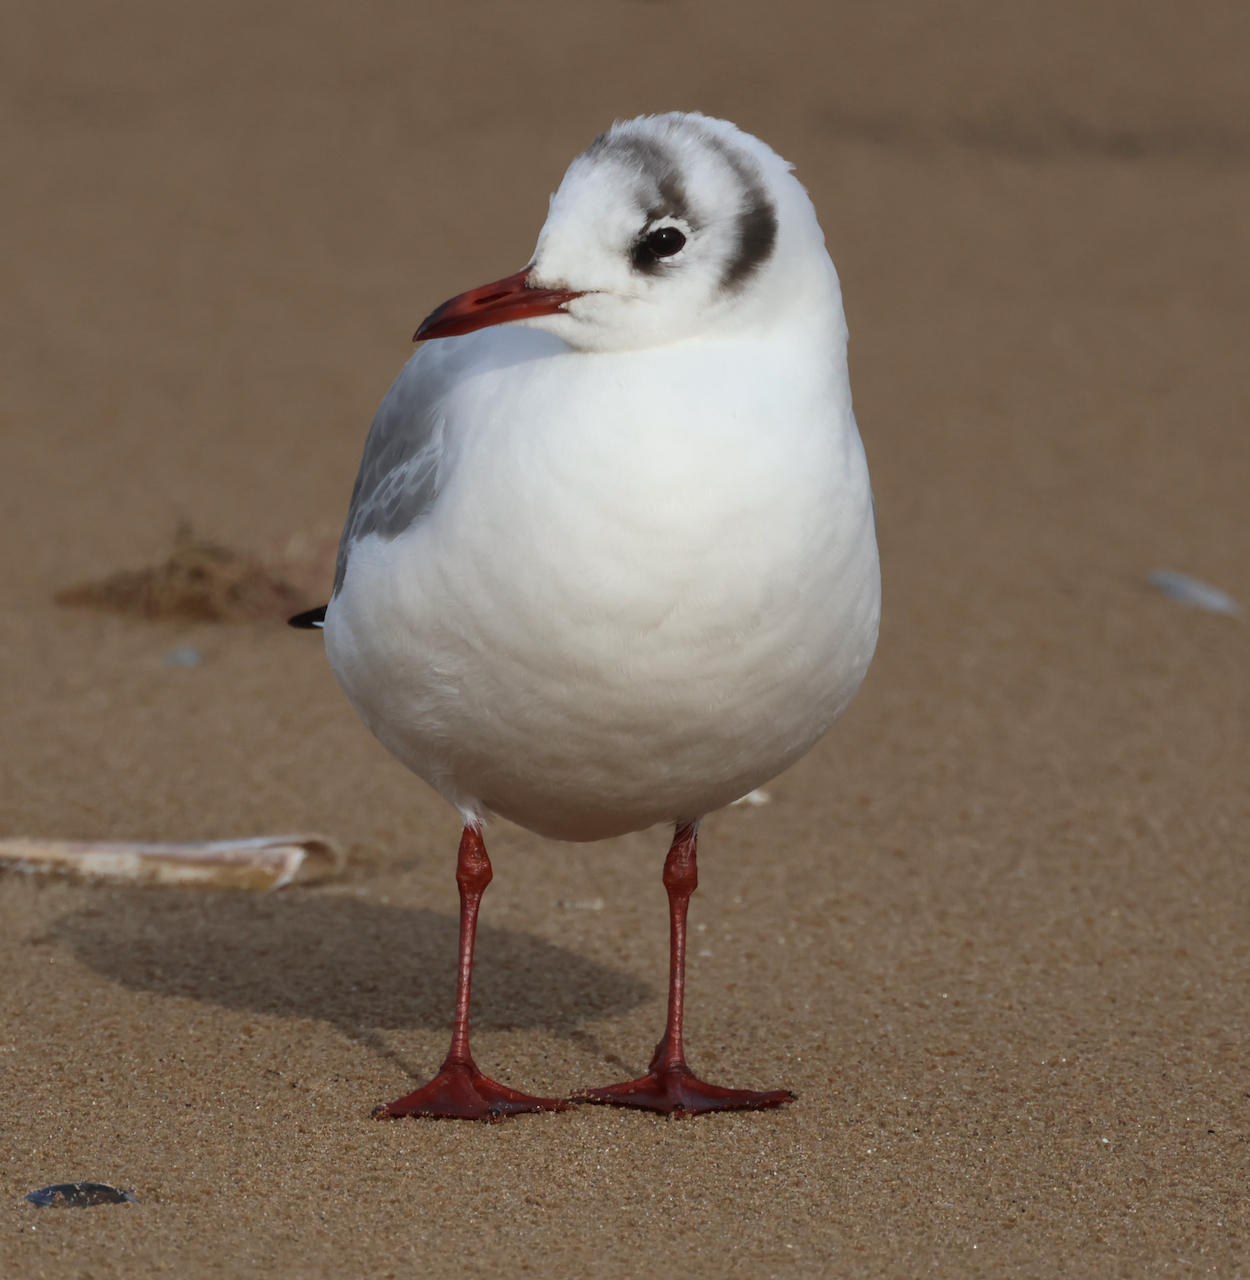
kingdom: Animalia
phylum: Chordata
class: Aves
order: Charadriiformes
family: Laridae
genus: Chroicocephalus
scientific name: Chroicocephalus ridibundus
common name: Black-headed gull
